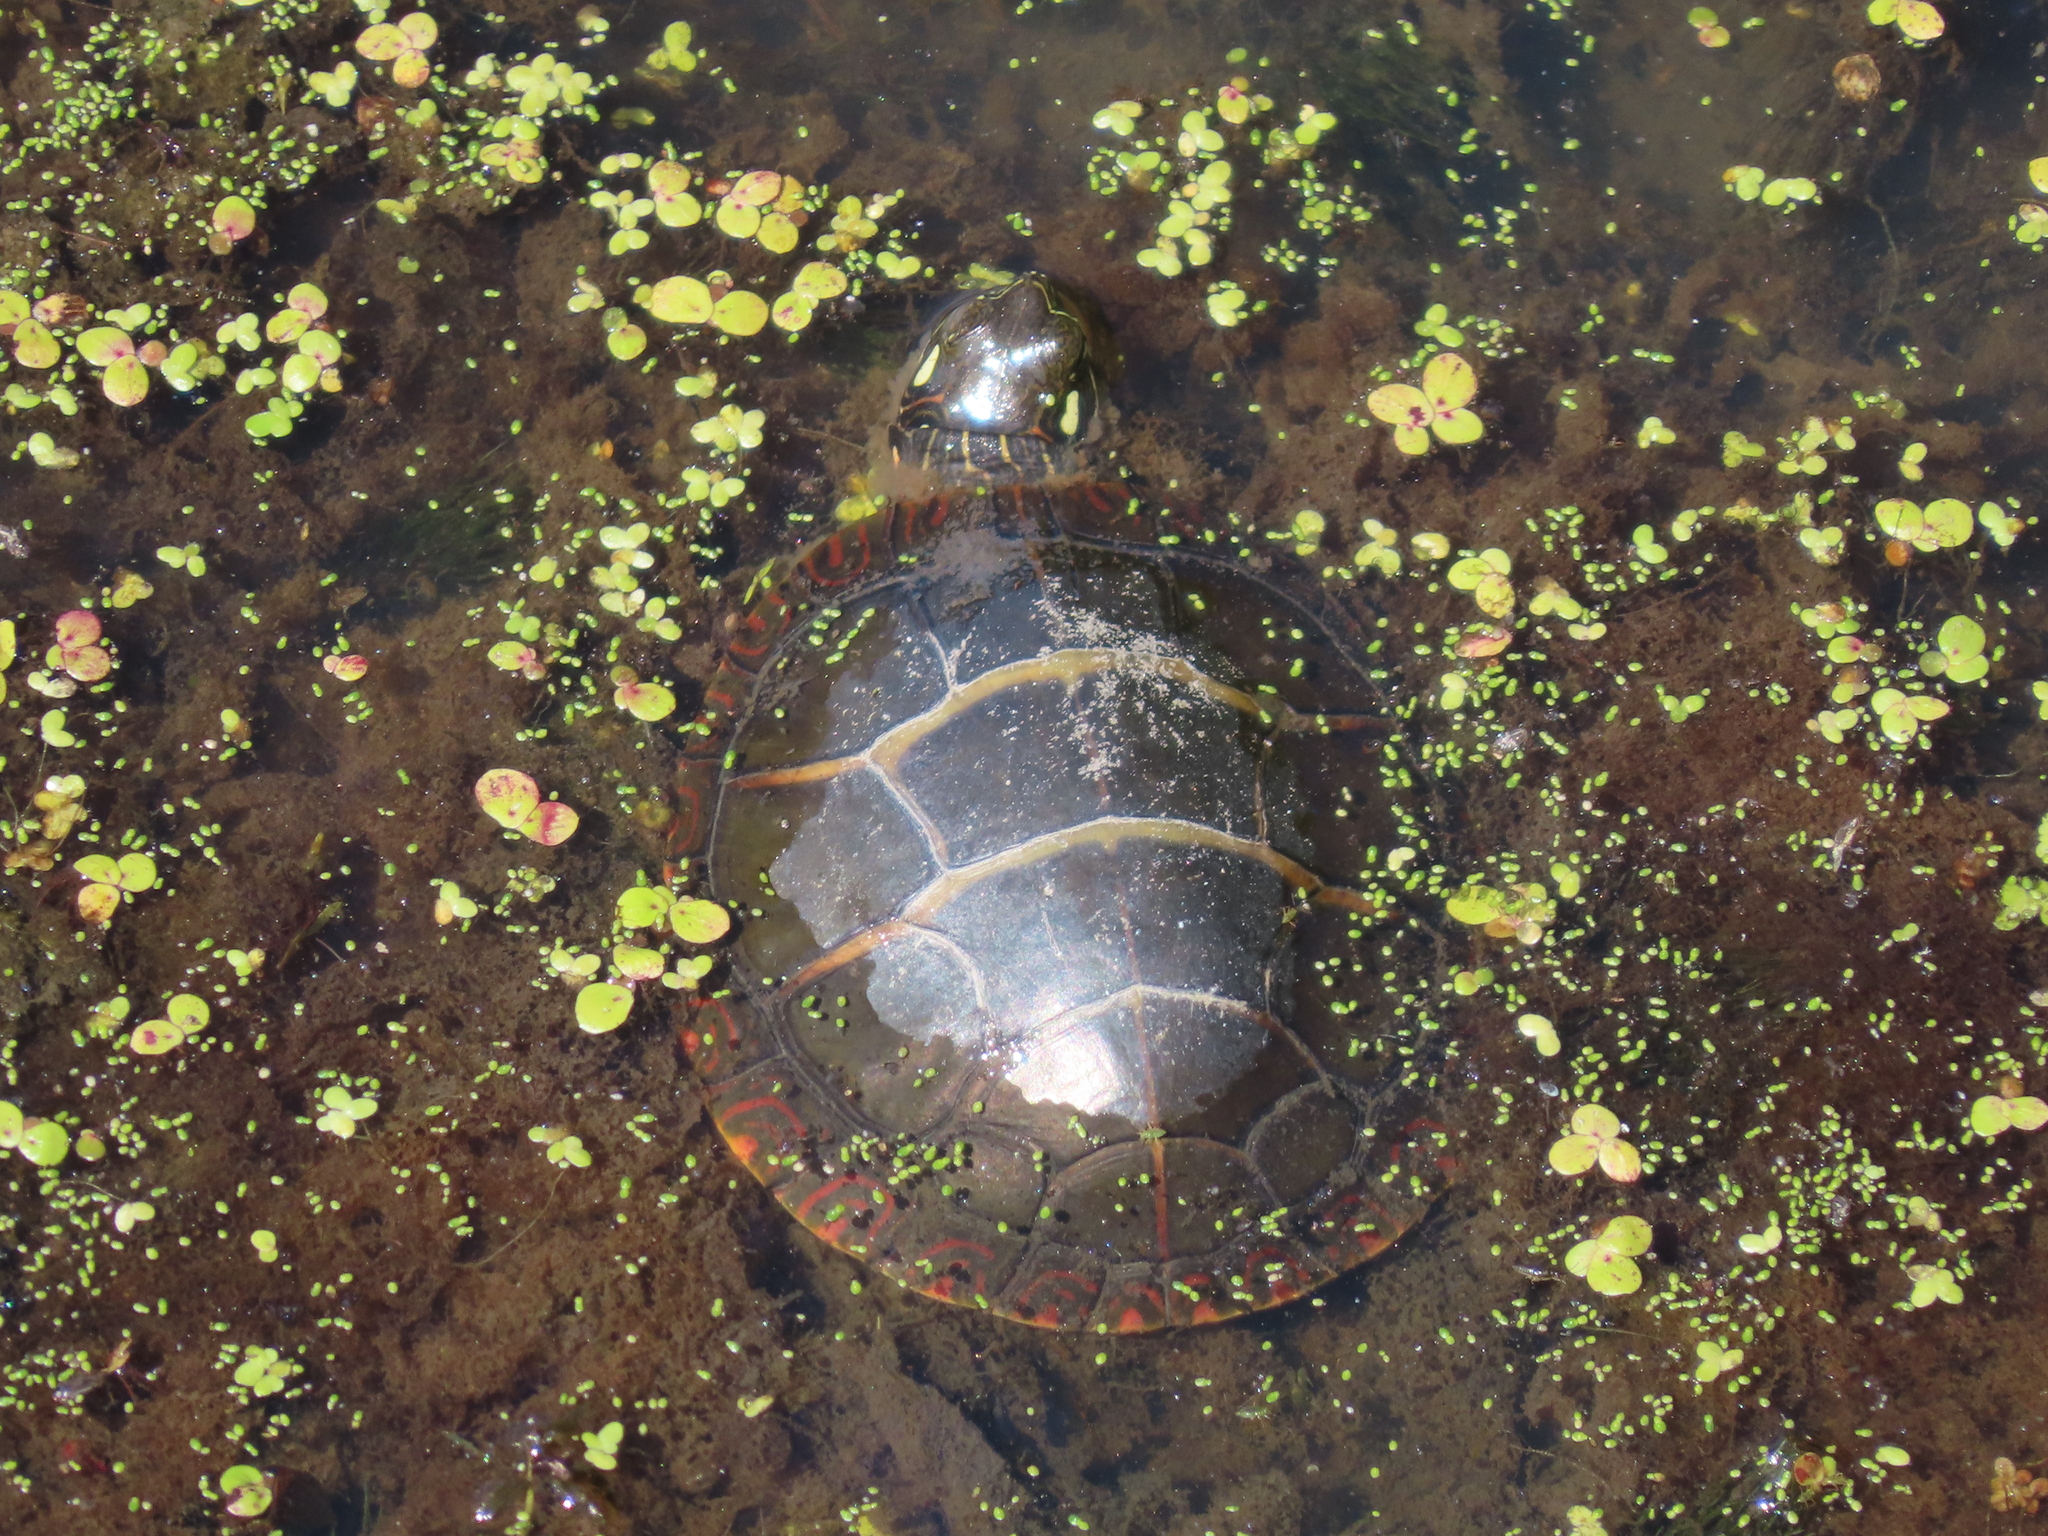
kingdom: Animalia
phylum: Chordata
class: Testudines
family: Emydidae
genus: Chrysemys
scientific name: Chrysemys picta
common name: Painted turtle
